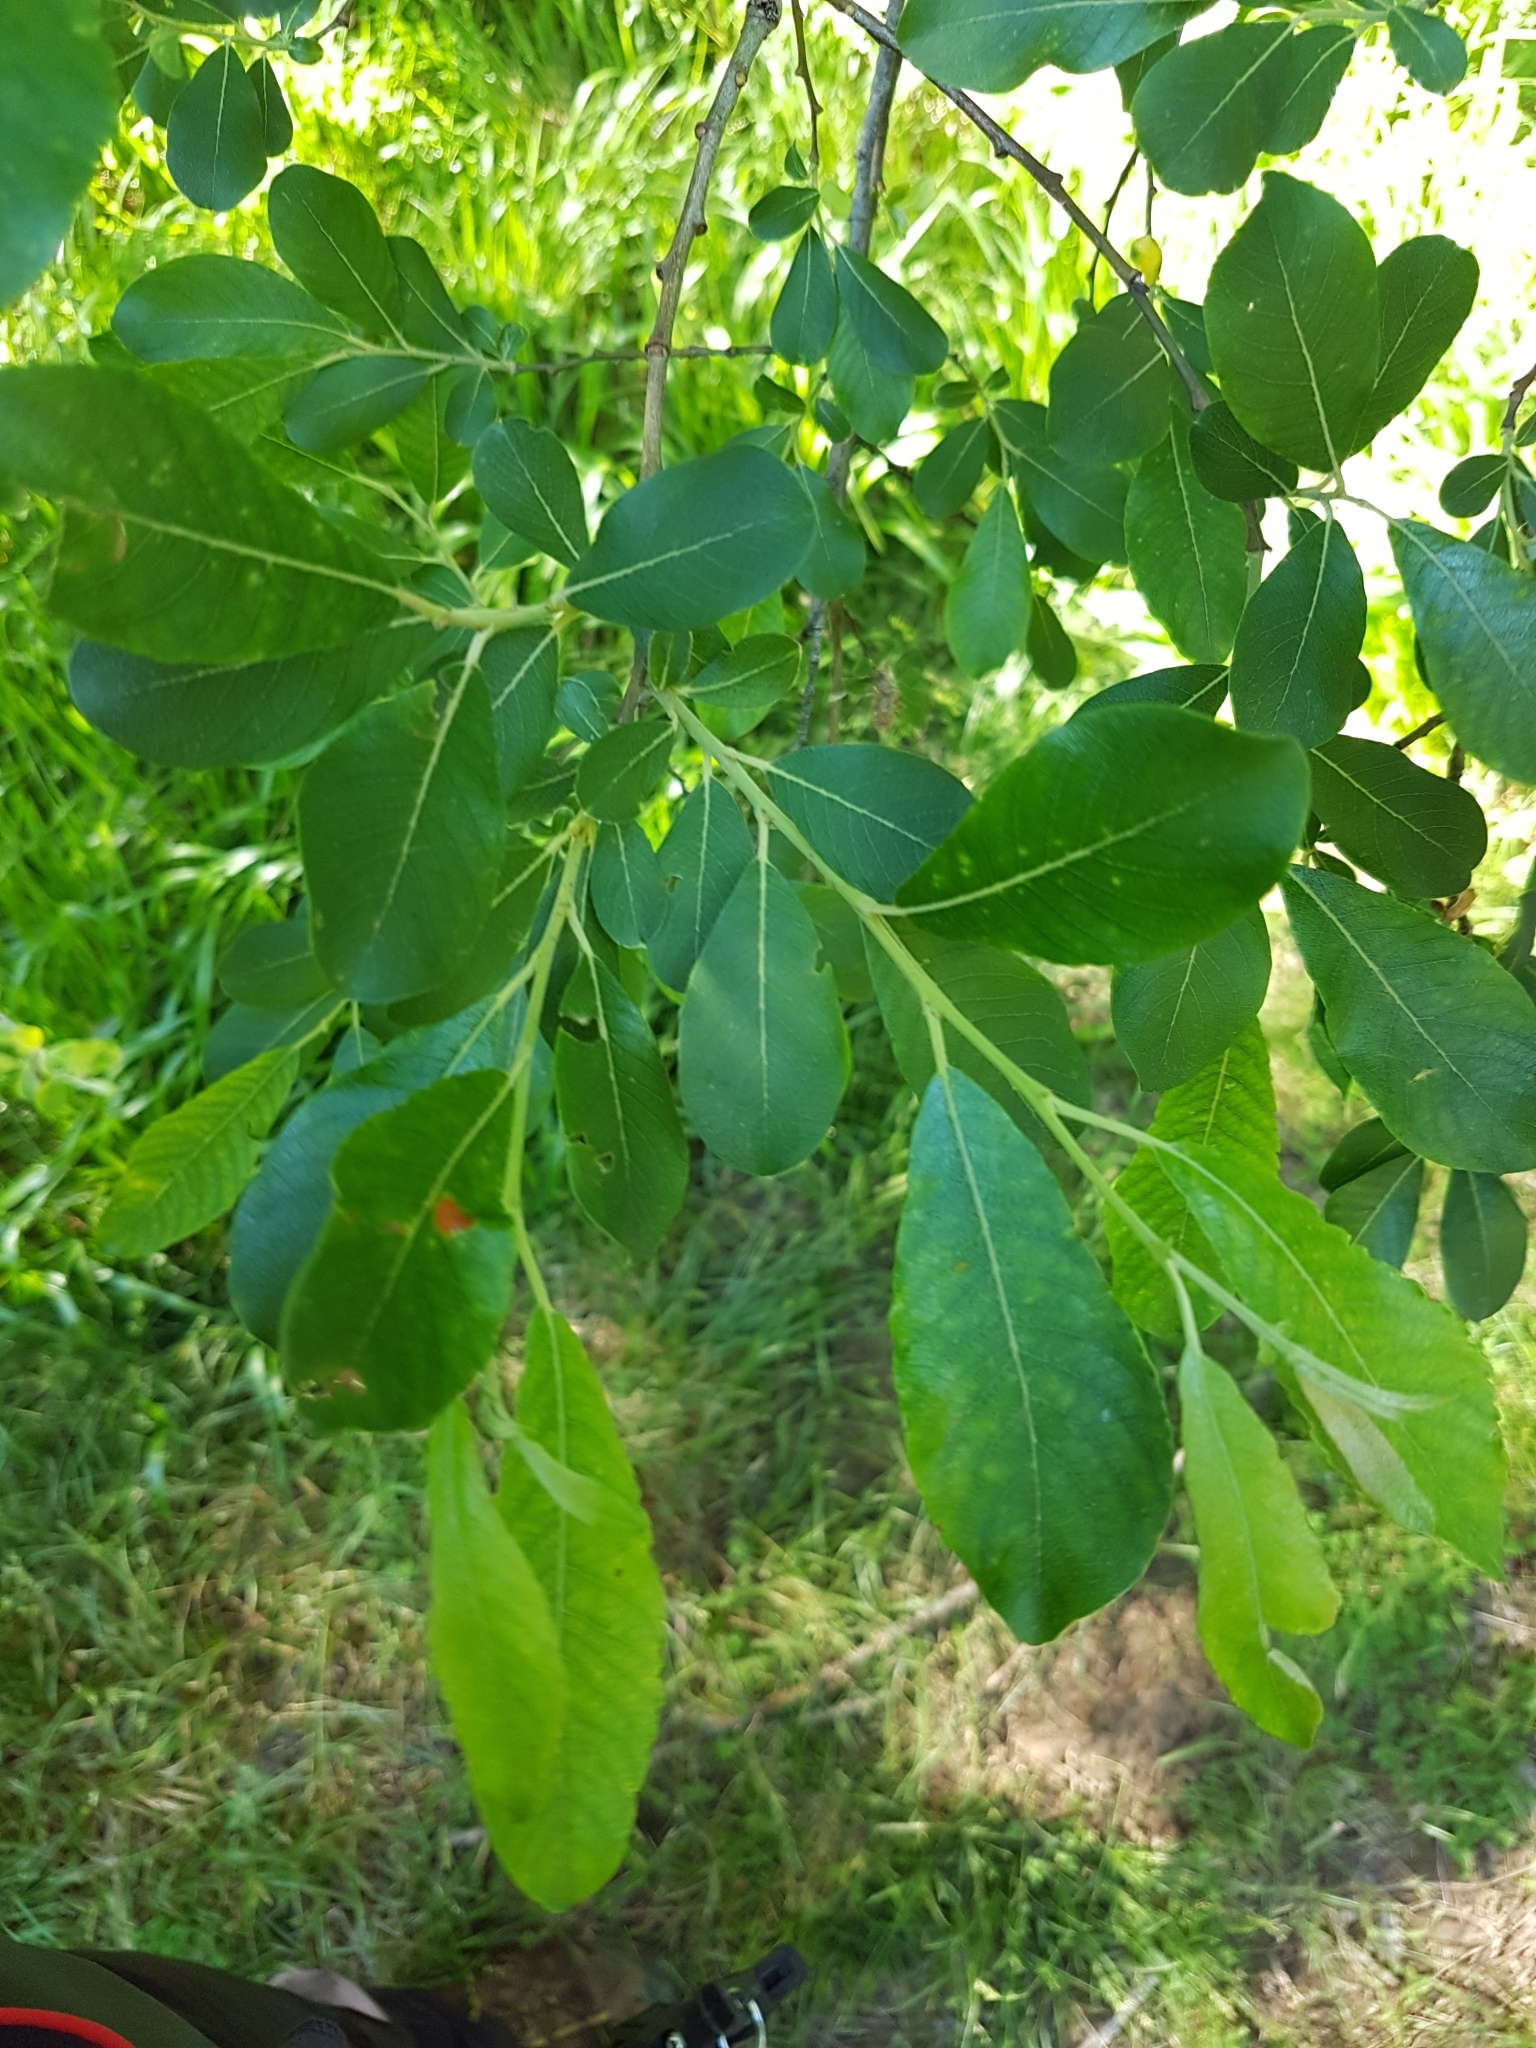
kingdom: Plantae
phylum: Tracheophyta
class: Magnoliopsida
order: Malpighiales
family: Salicaceae
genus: Salix
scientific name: Salix atrocinerea
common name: Rusty willow
